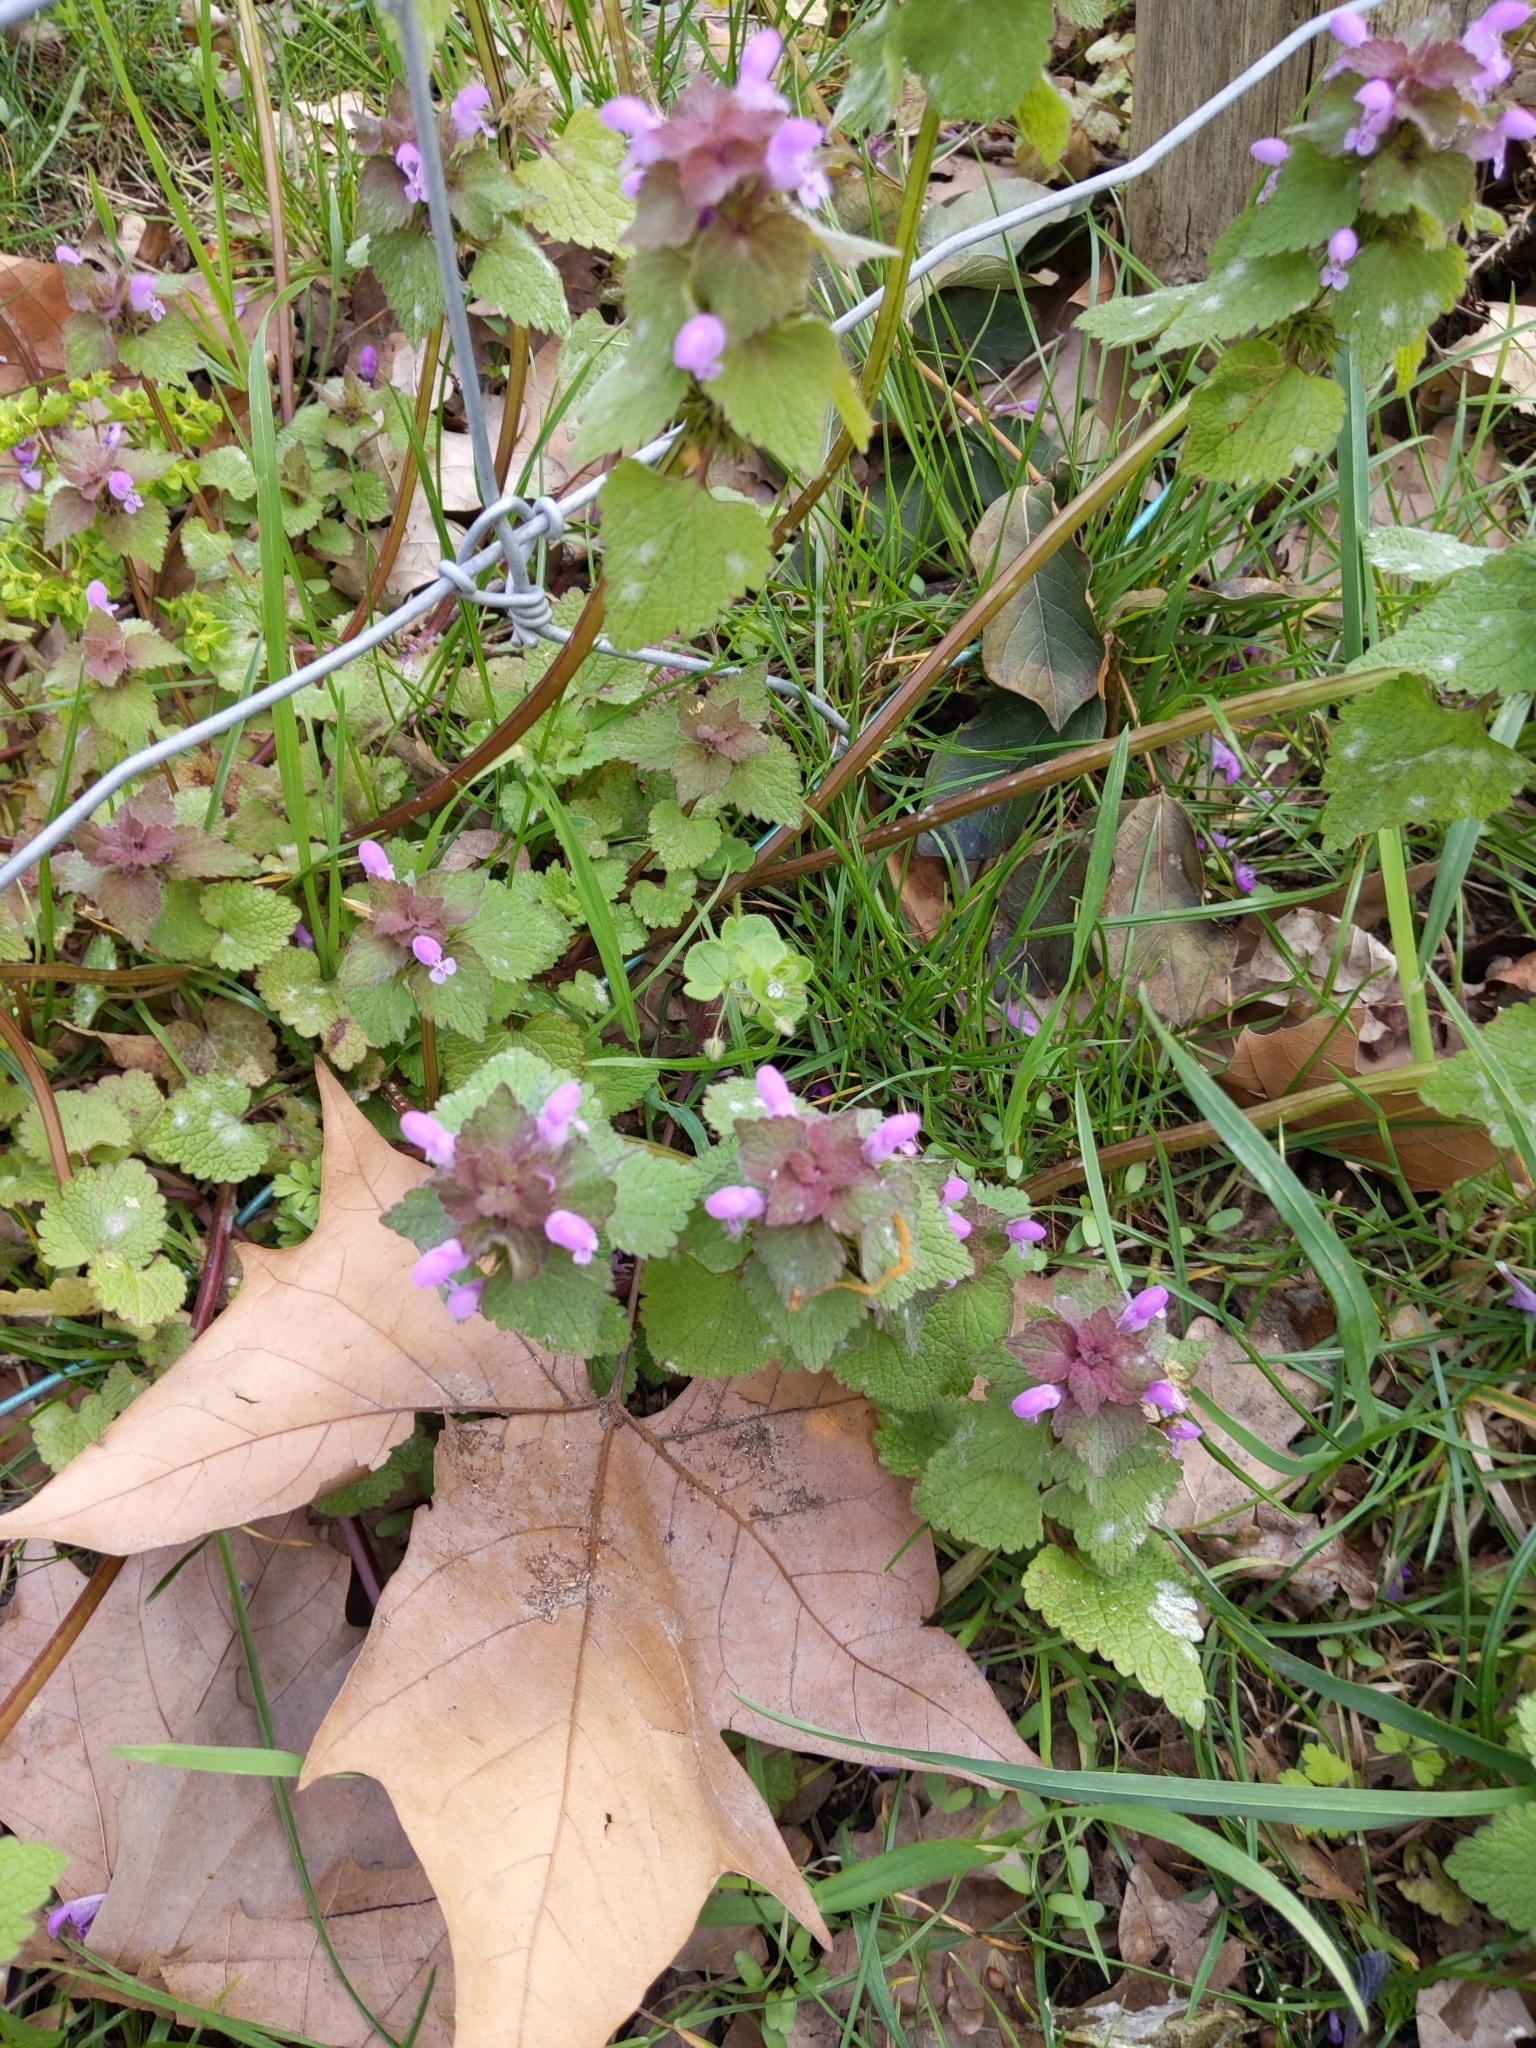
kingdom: Plantae
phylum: Tracheophyta
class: Magnoliopsida
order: Lamiales
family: Lamiaceae
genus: Lamium
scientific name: Lamium purpureum
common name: Red dead-nettle
